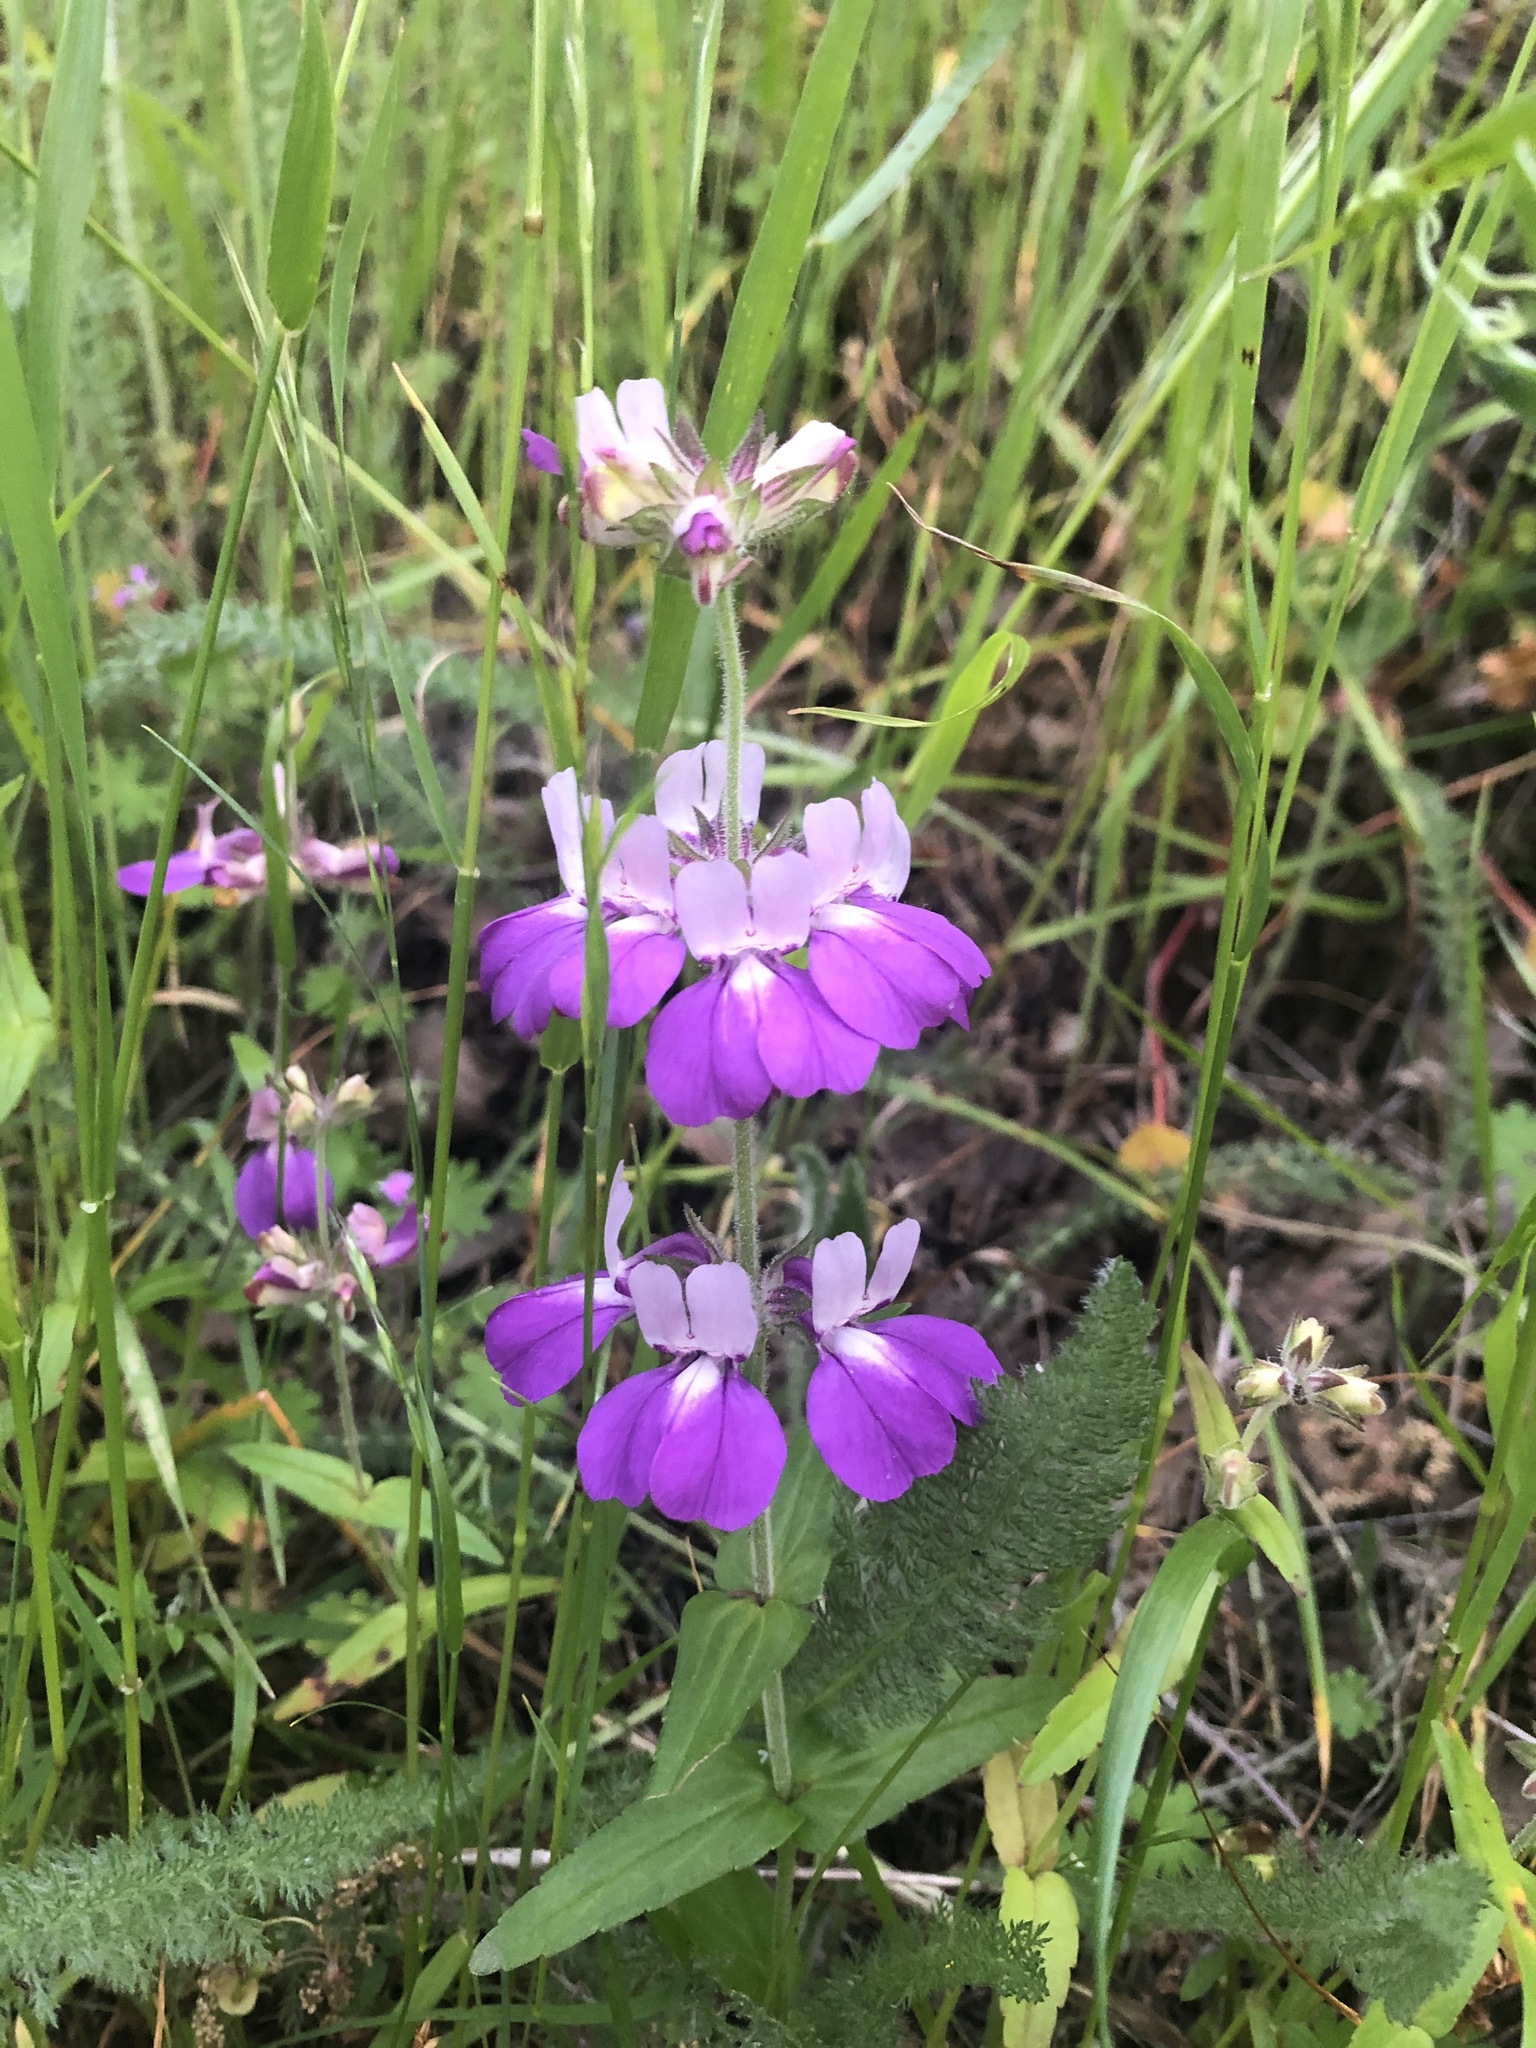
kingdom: Plantae
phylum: Tracheophyta
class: Magnoliopsida
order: Lamiales
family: Plantaginaceae
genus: Collinsia
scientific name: Collinsia heterophylla
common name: Chinese-houses
